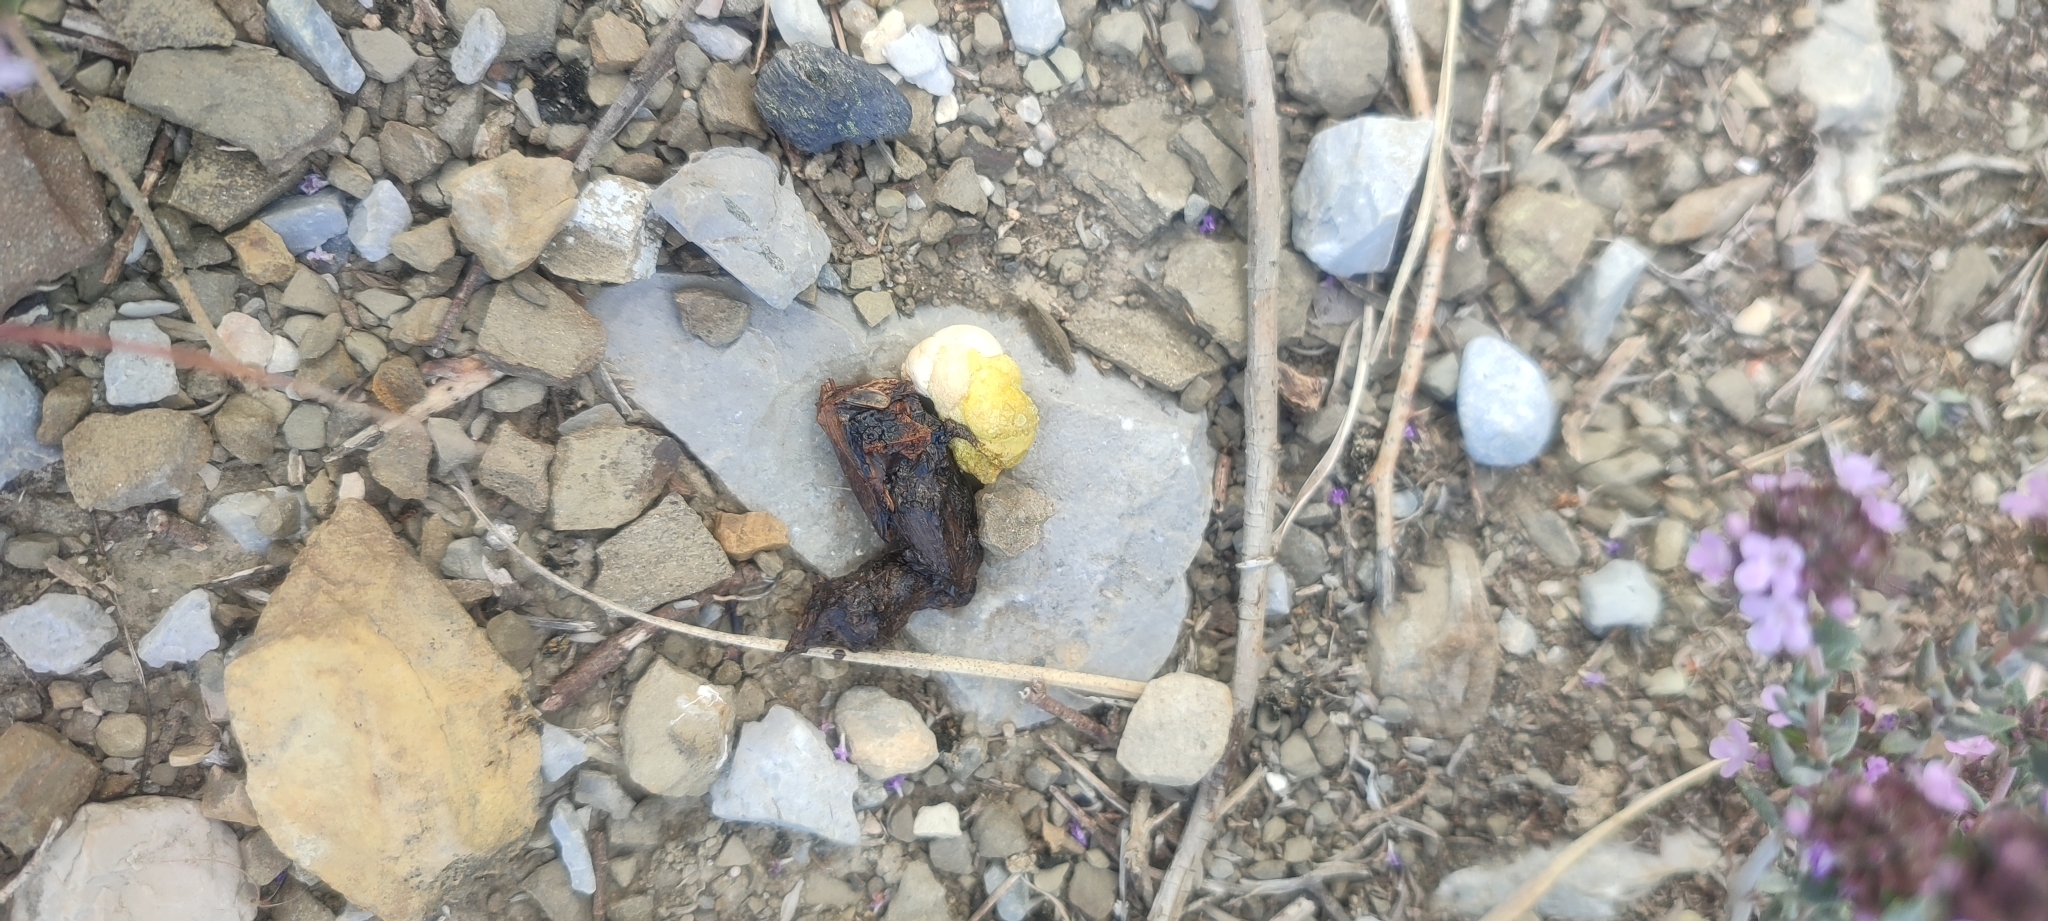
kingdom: Animalia
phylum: Chordata
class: Squamata
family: Lacertidae
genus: Timon
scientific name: Timon lepidus
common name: Ocellated lizard
